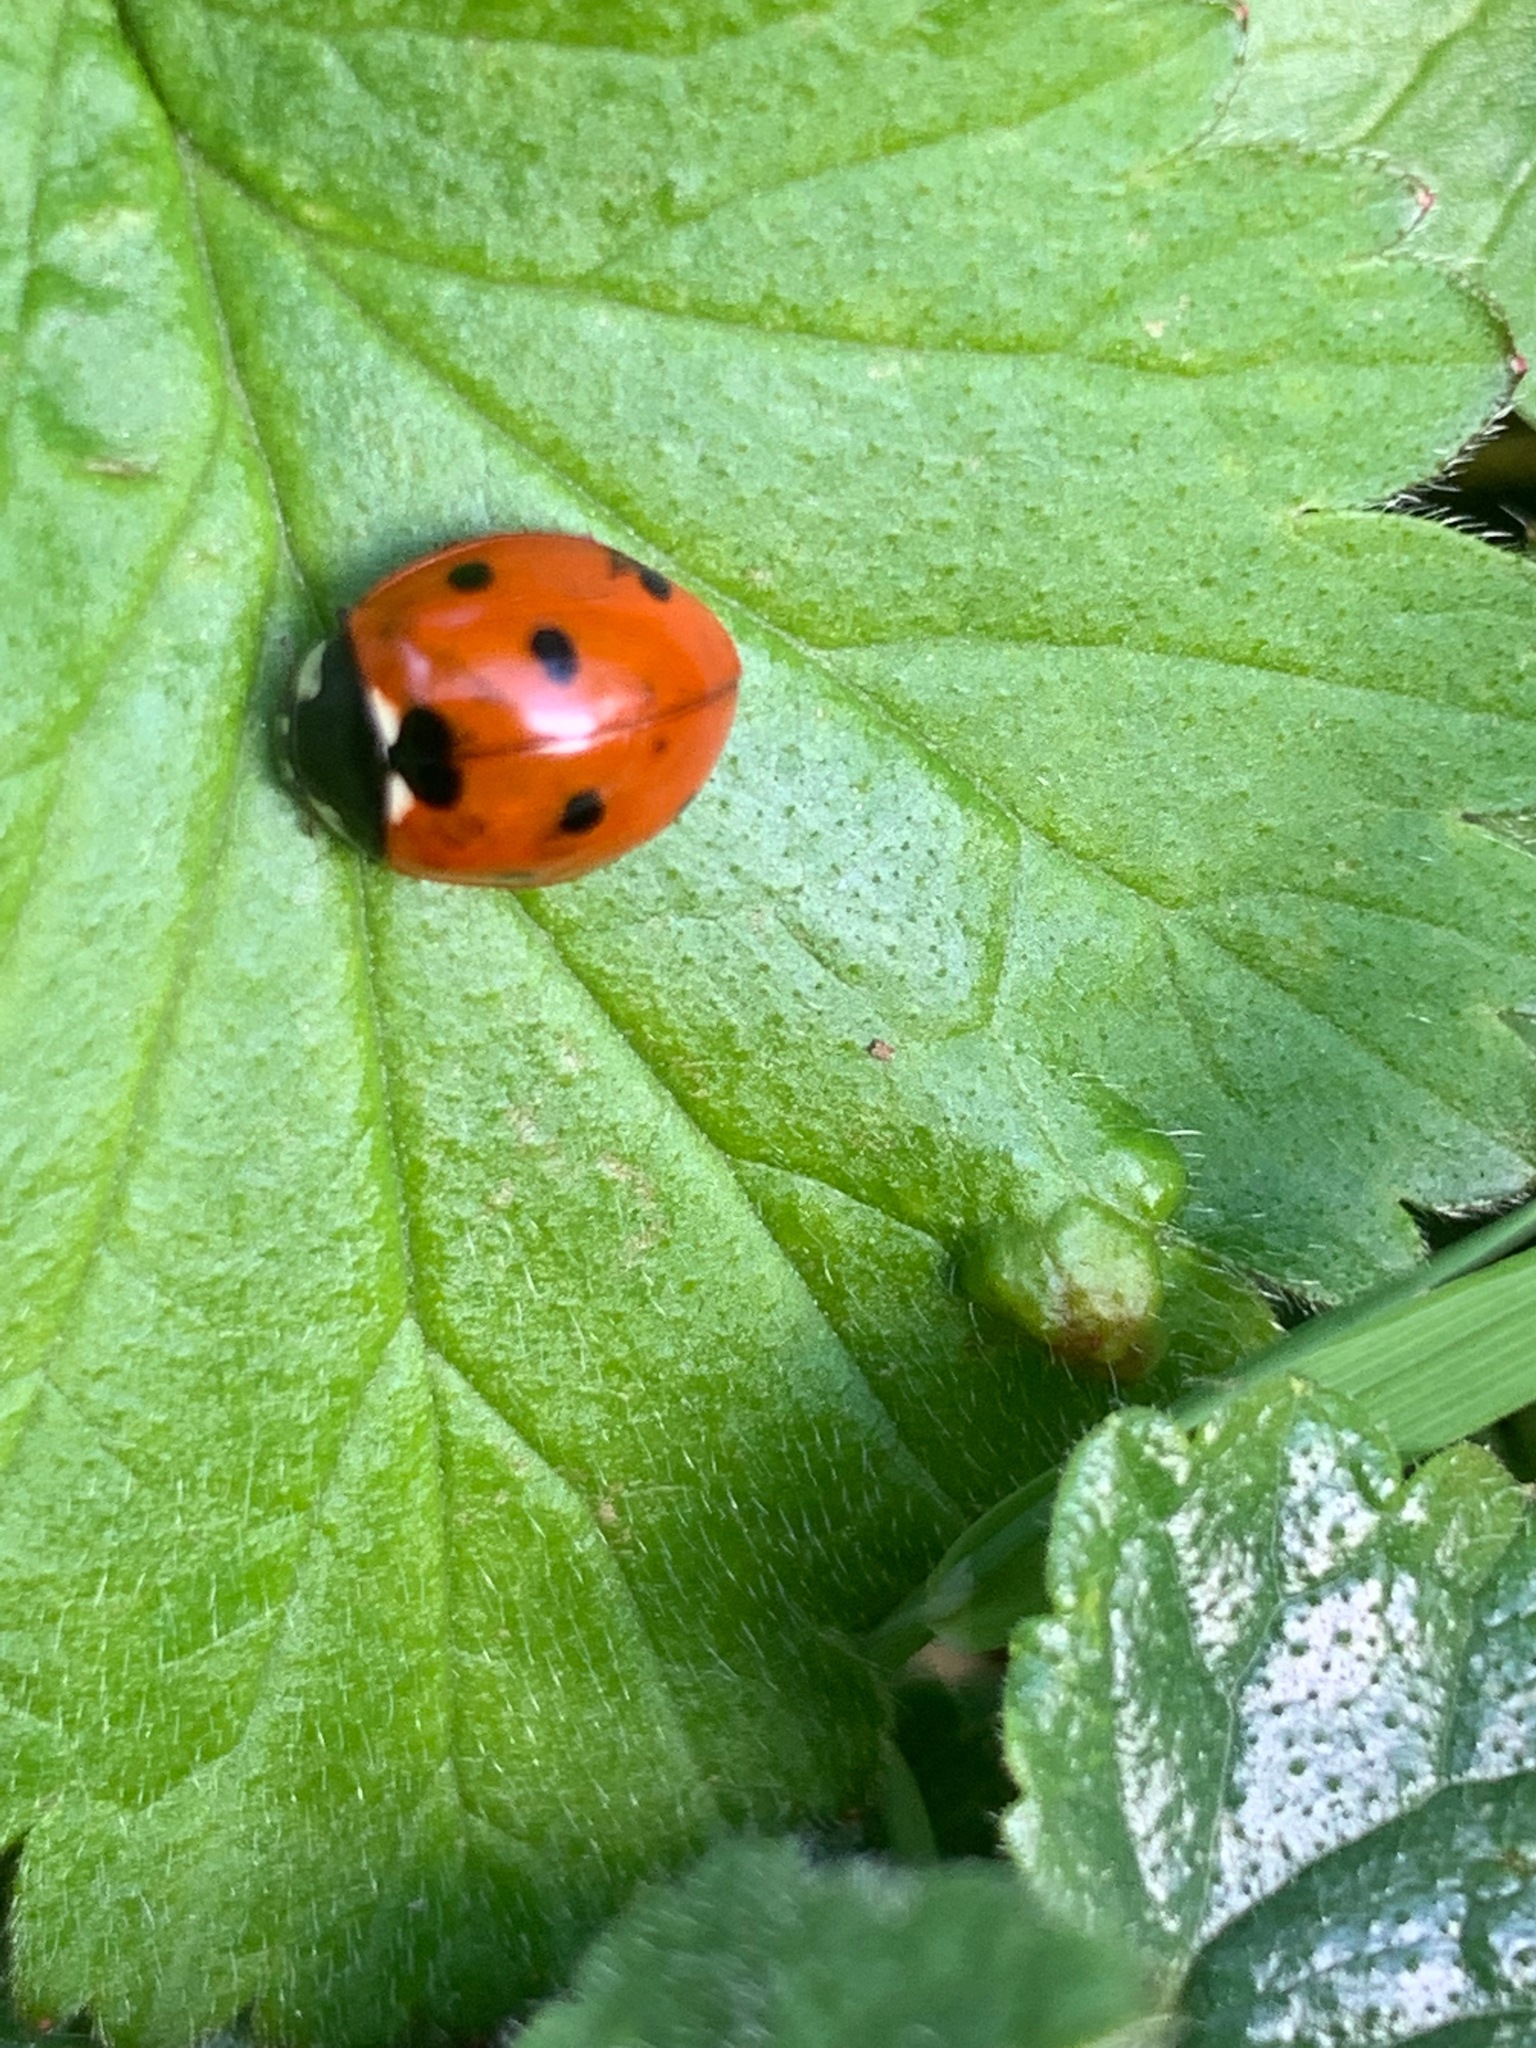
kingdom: Animalia
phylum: Arthropoda
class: Insecta
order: Coleoptera
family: Coccinellidae
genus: Coccinella
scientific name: Coccinella septempunctata
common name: Sevenspotted lady beetle
